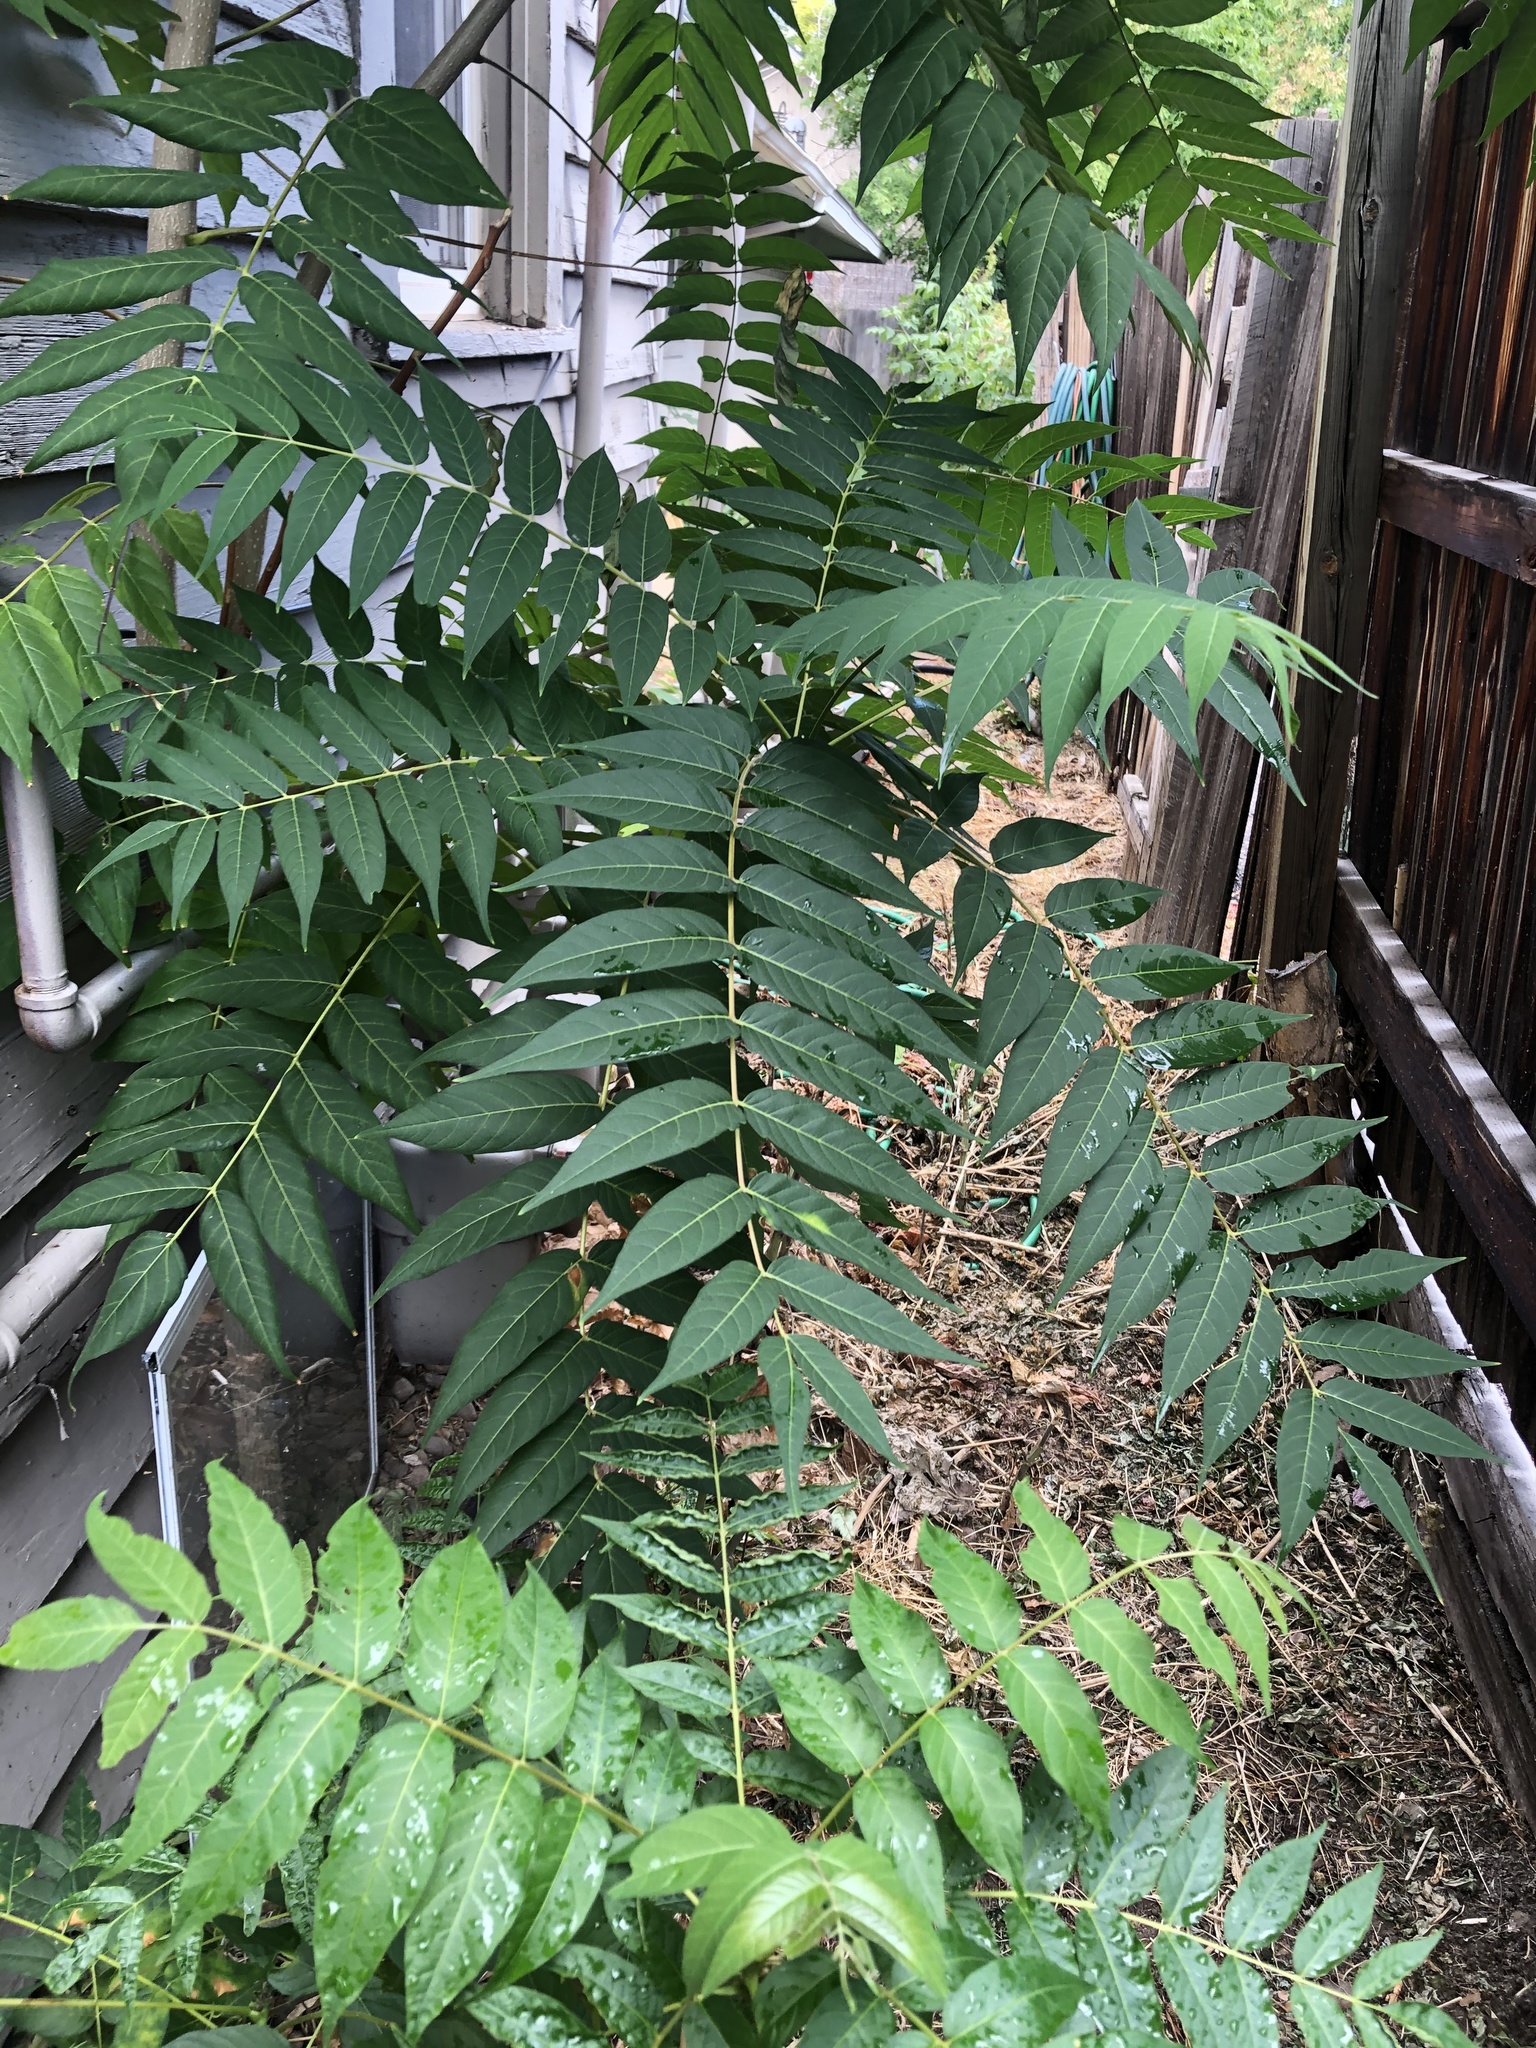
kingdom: Plantae
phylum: Tracheophyta
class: Magnoliopsida
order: Sapindales
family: Simaroubaceae
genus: Ailanthus
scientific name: Ailanthus altissima
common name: Tree-of-heaven
